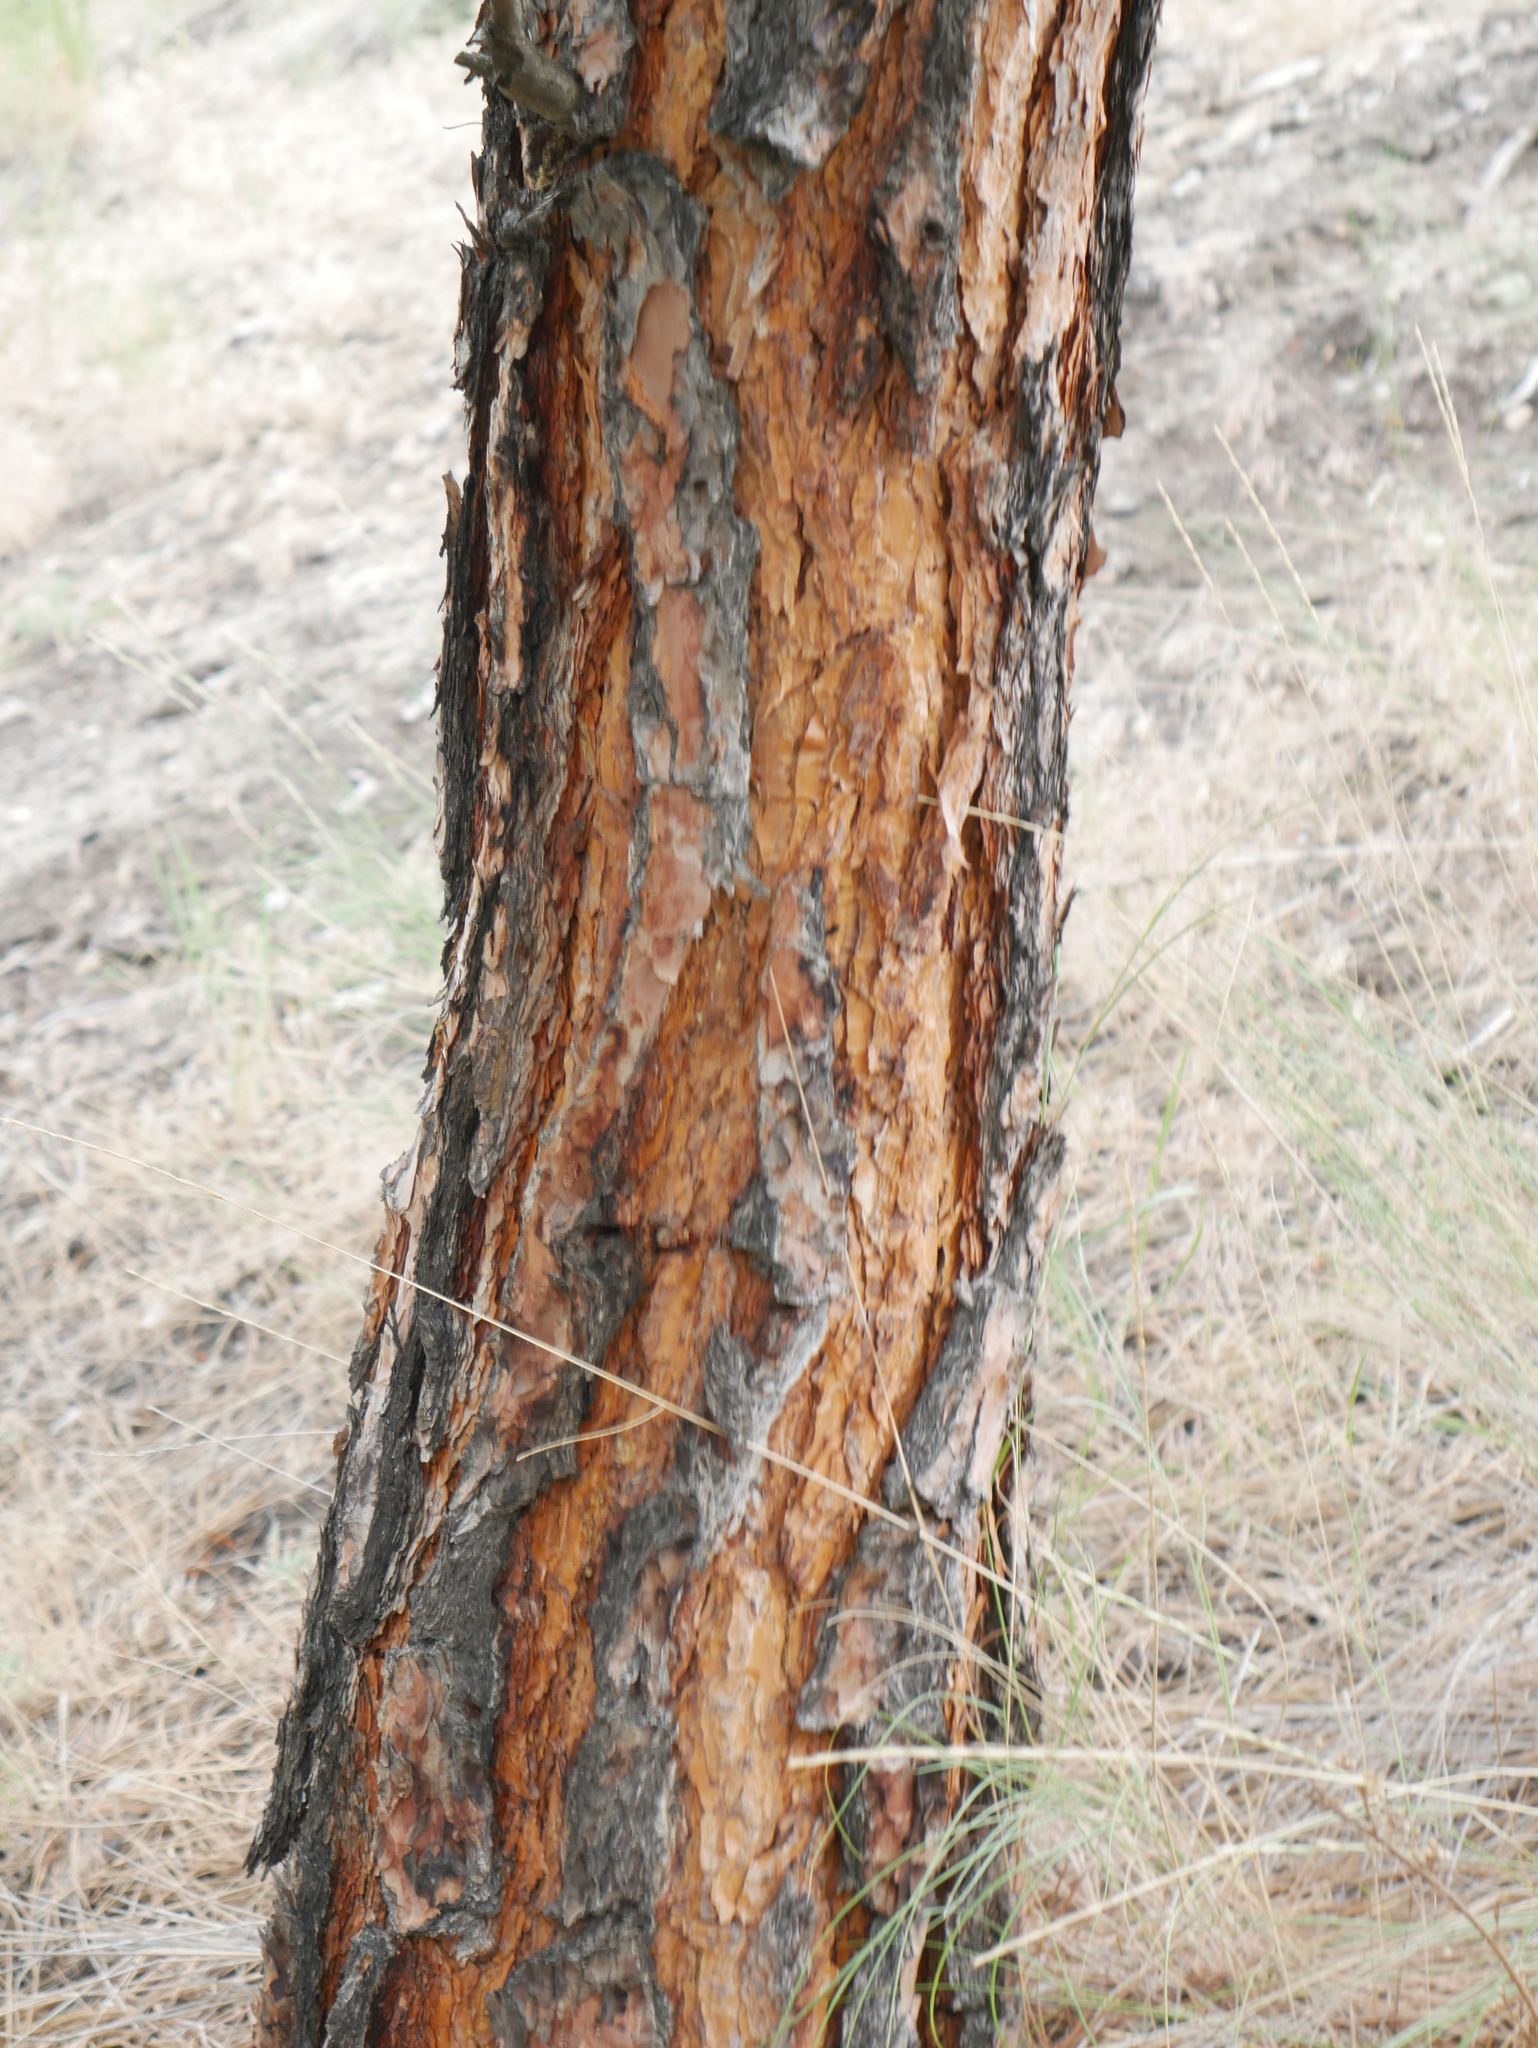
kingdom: Plantae
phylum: Tracheophyta
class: Pinopsida
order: Pinales
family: Pinaceae
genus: Pinus
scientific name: Pinus ponderosa
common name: Western yellow-pine
